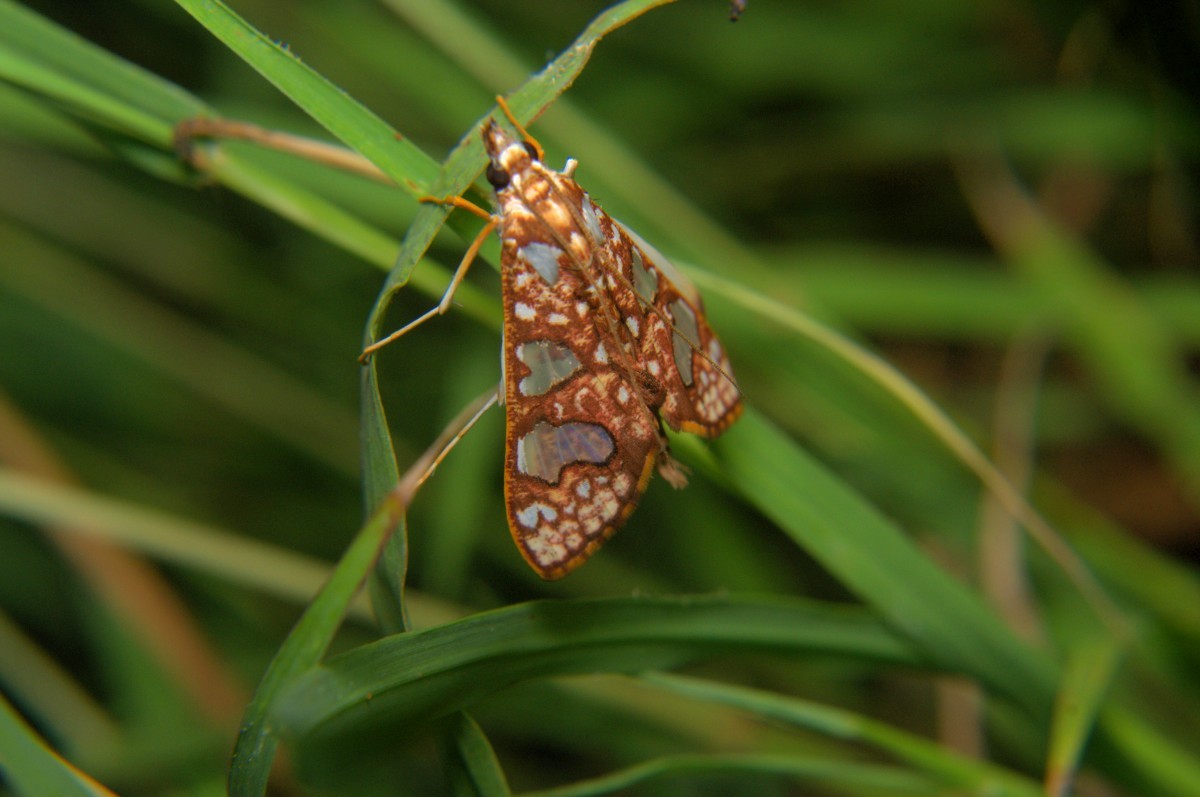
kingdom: Animalia
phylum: Arthropoda
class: Insecta
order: Lepidoptera
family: Crambidae
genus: Glyphodes
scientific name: Glyphodes canthusalis
